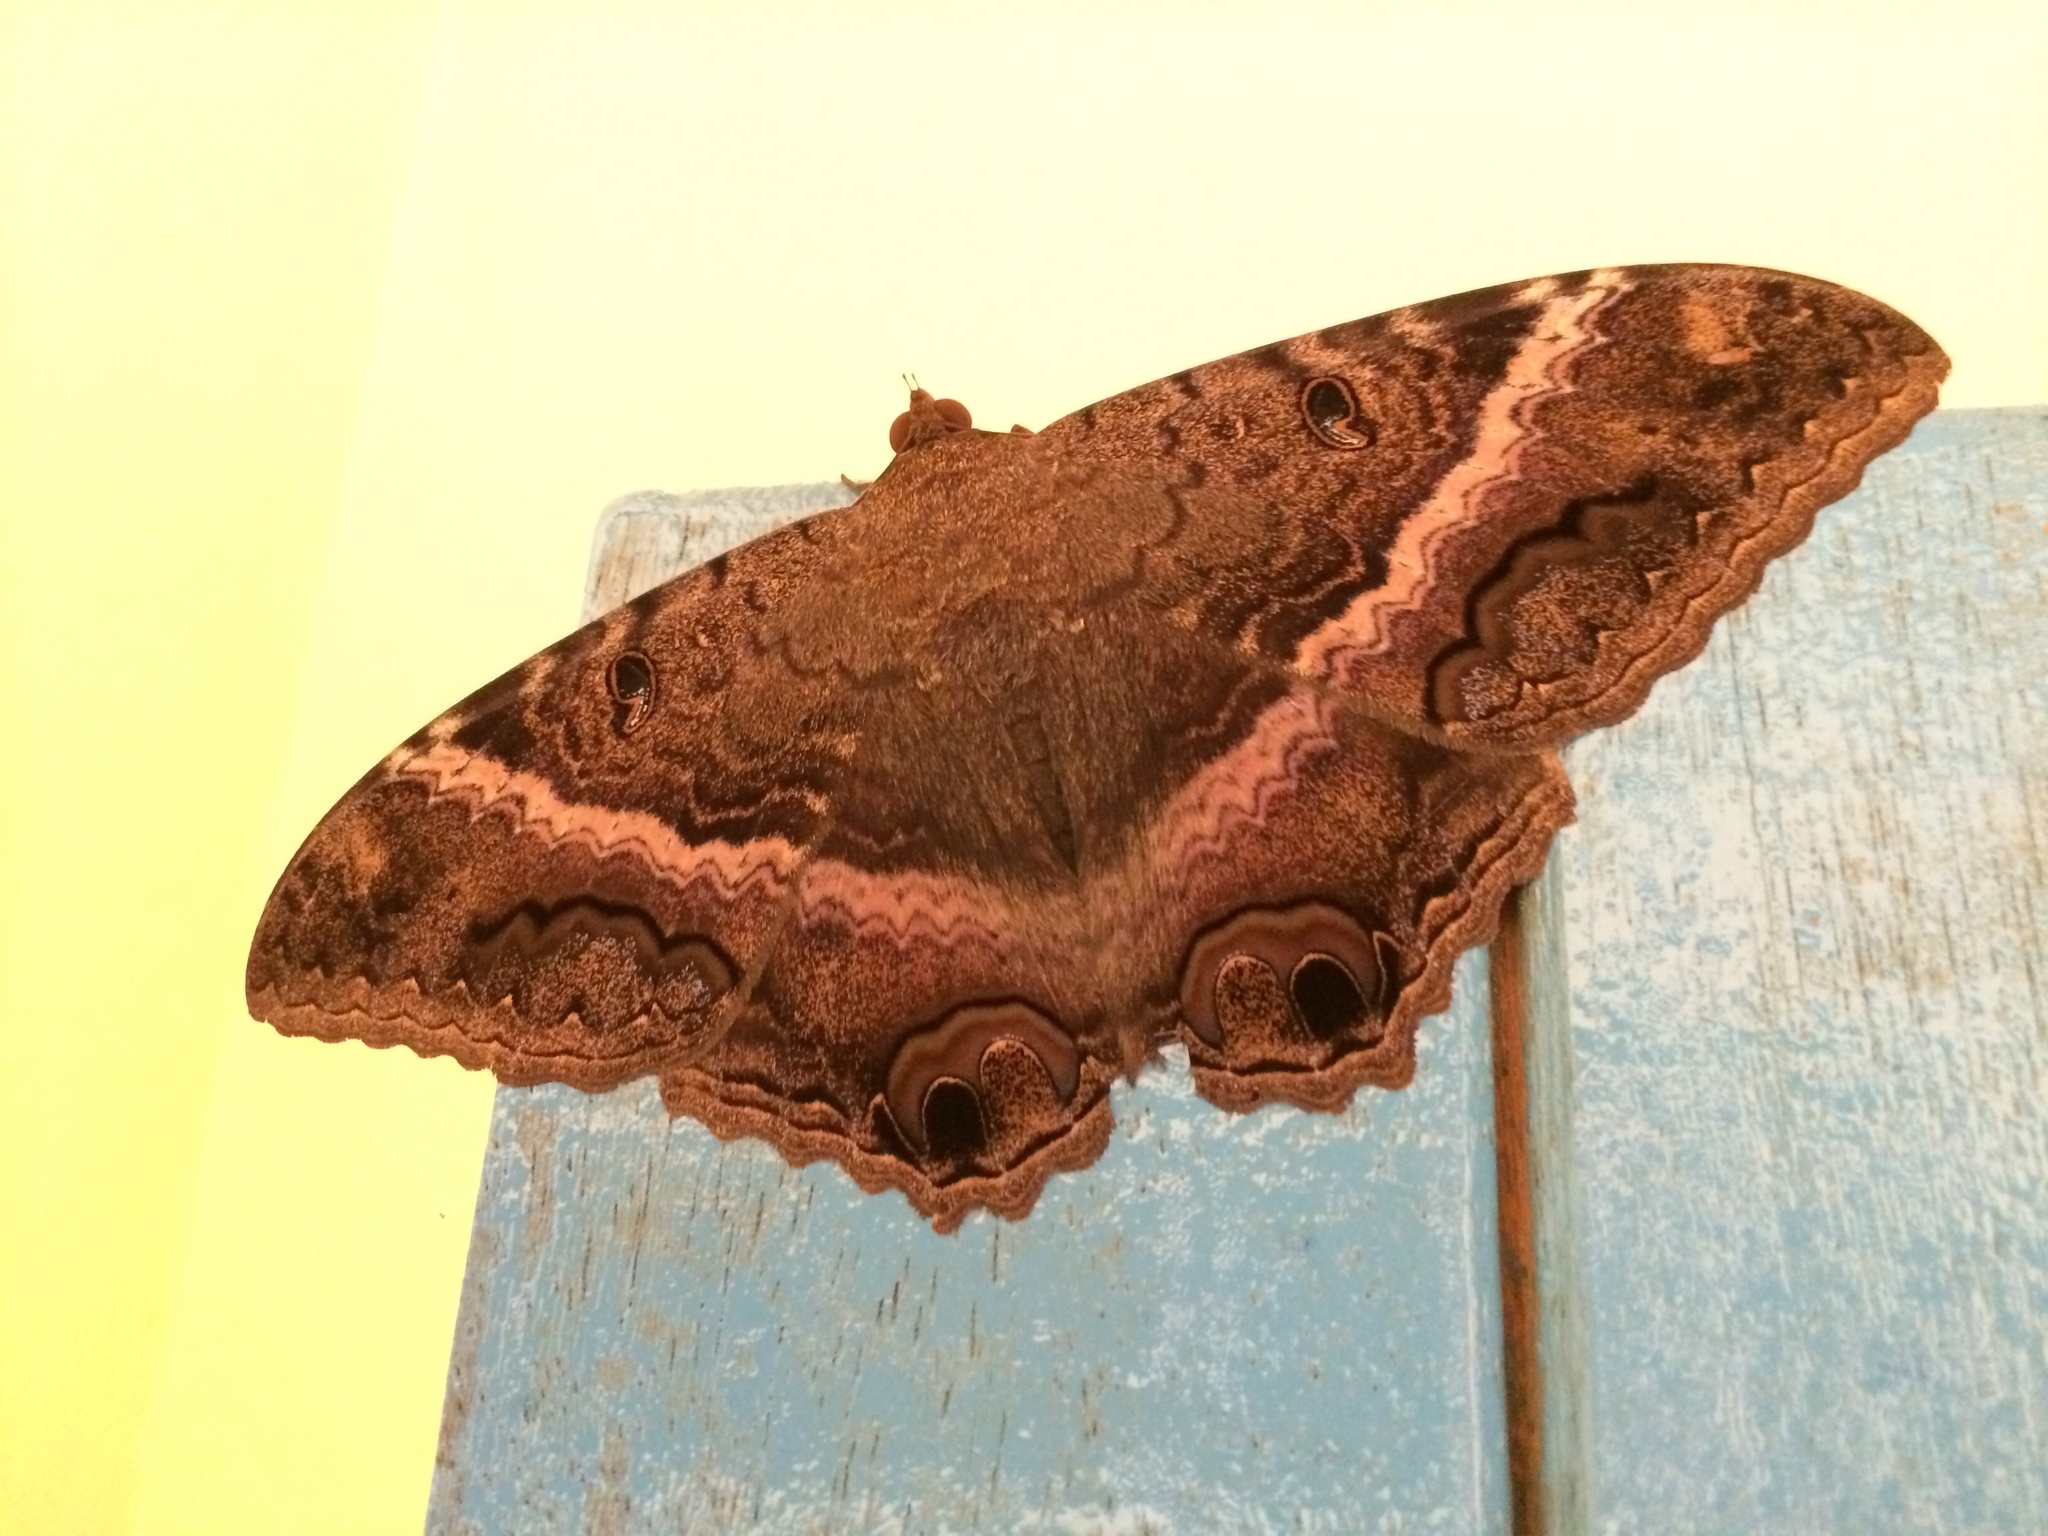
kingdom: Animalia
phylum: Arthropoda
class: Insecta
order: Lepidoptera
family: Erebidae
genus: Ascalapha
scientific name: Ascalapha odorata
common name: Black witch
